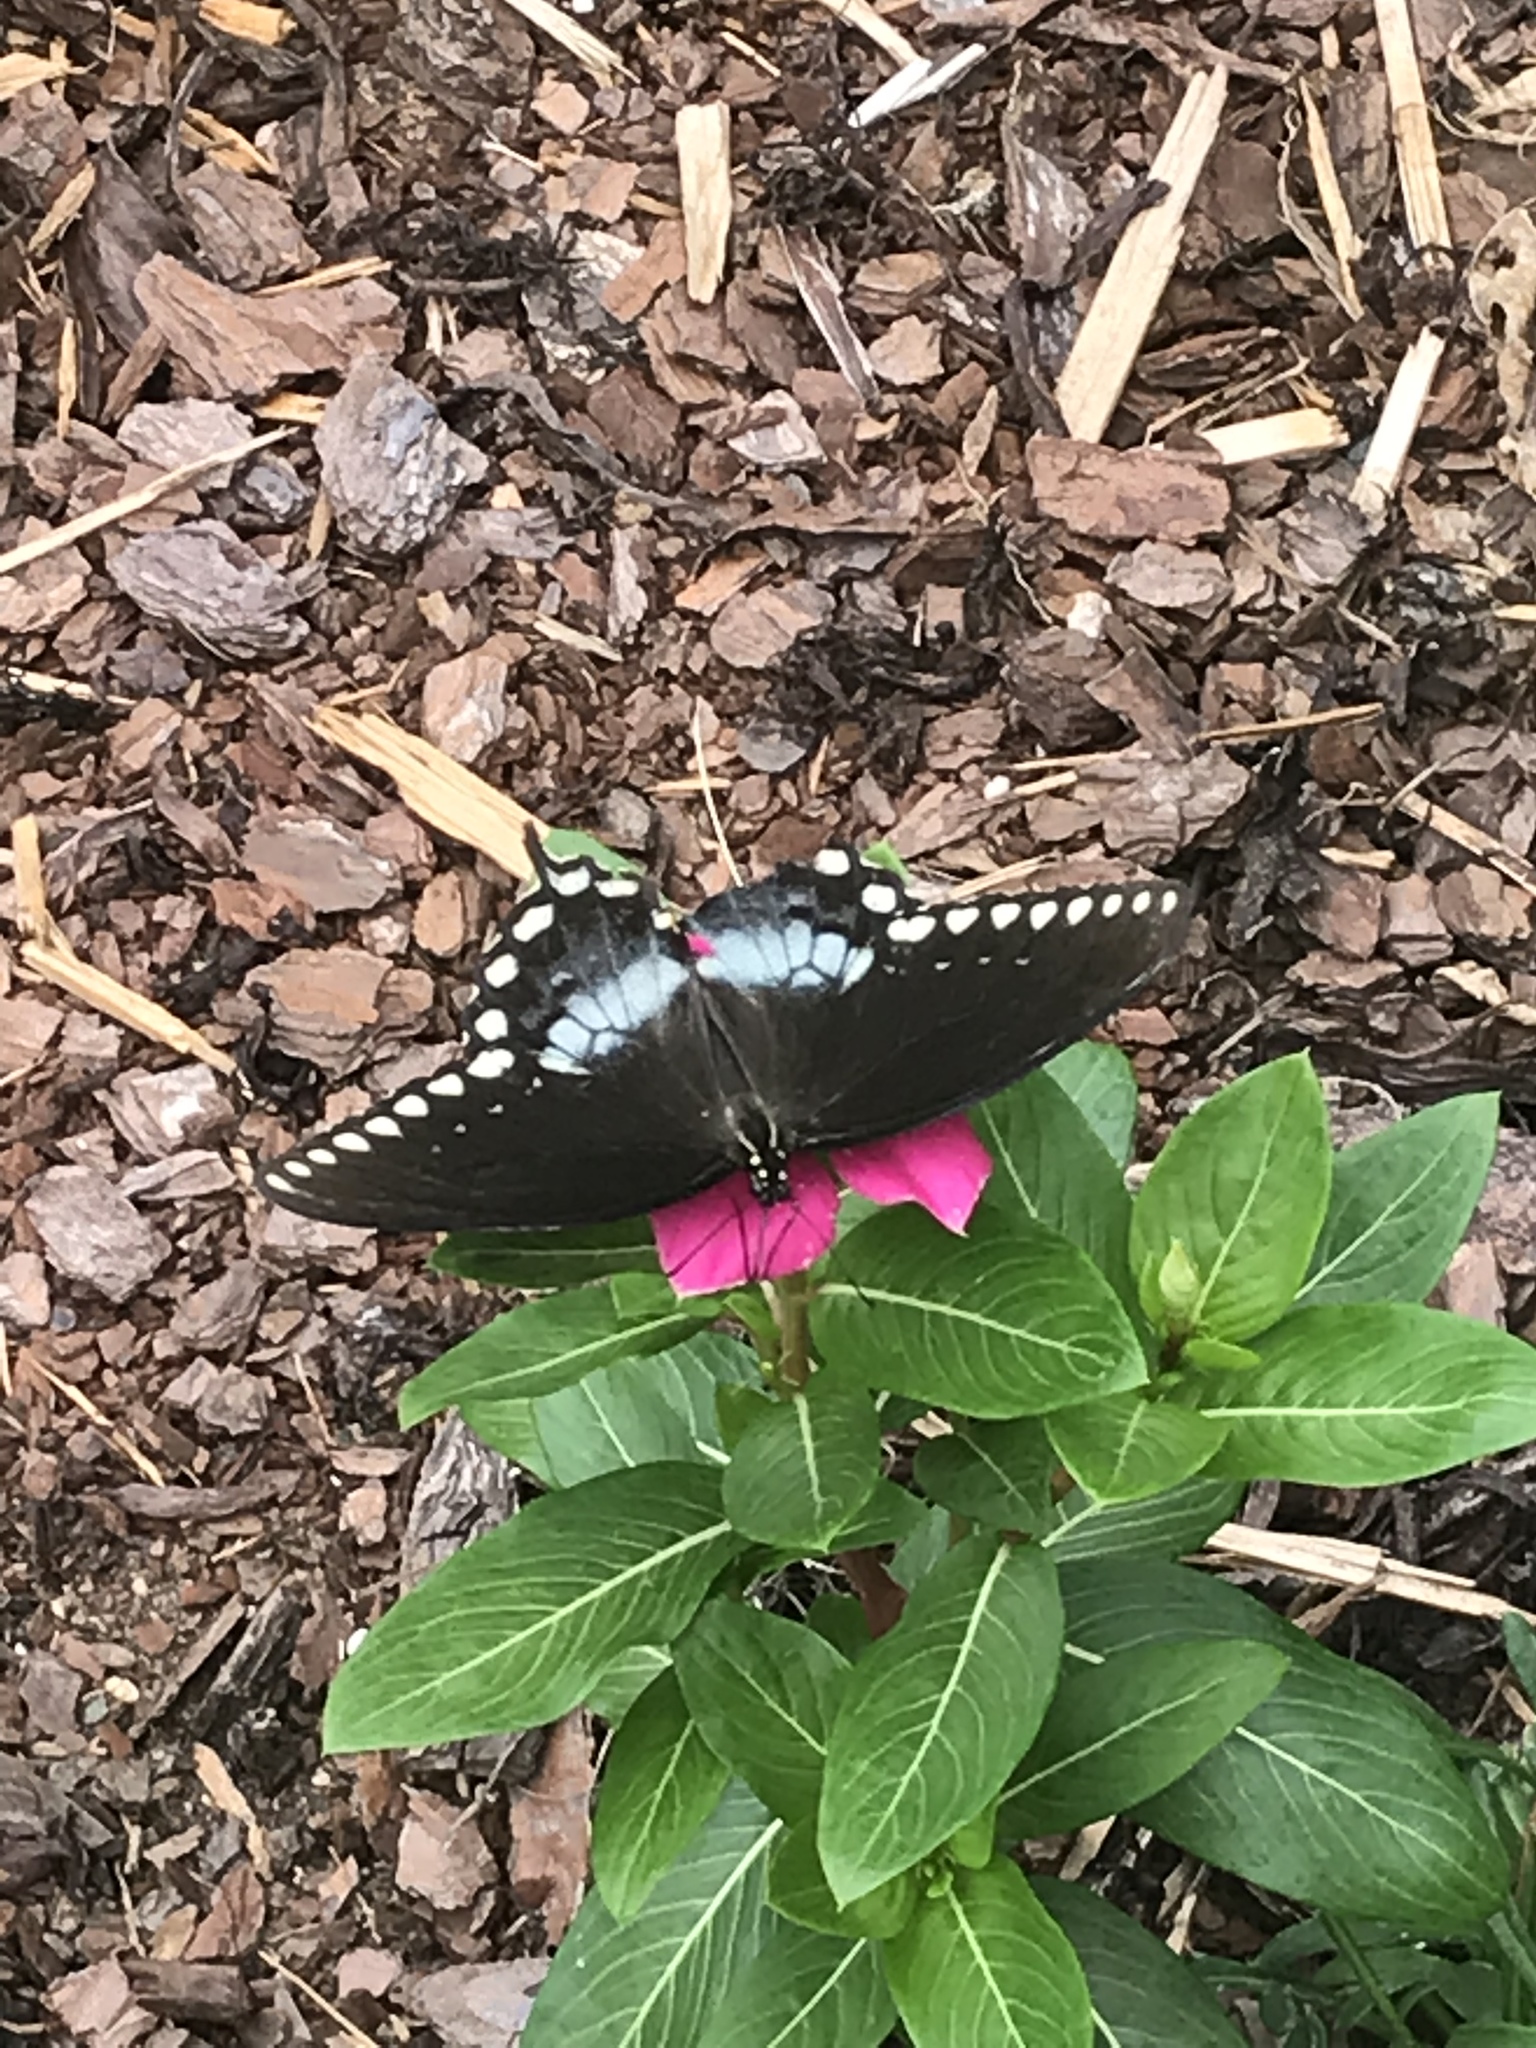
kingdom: Animalia
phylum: Arthropoda
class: Insecta
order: Lepidoptera
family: Papilionidae
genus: Papilio
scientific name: Papilio troilus
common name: Spicebush swallowtail
